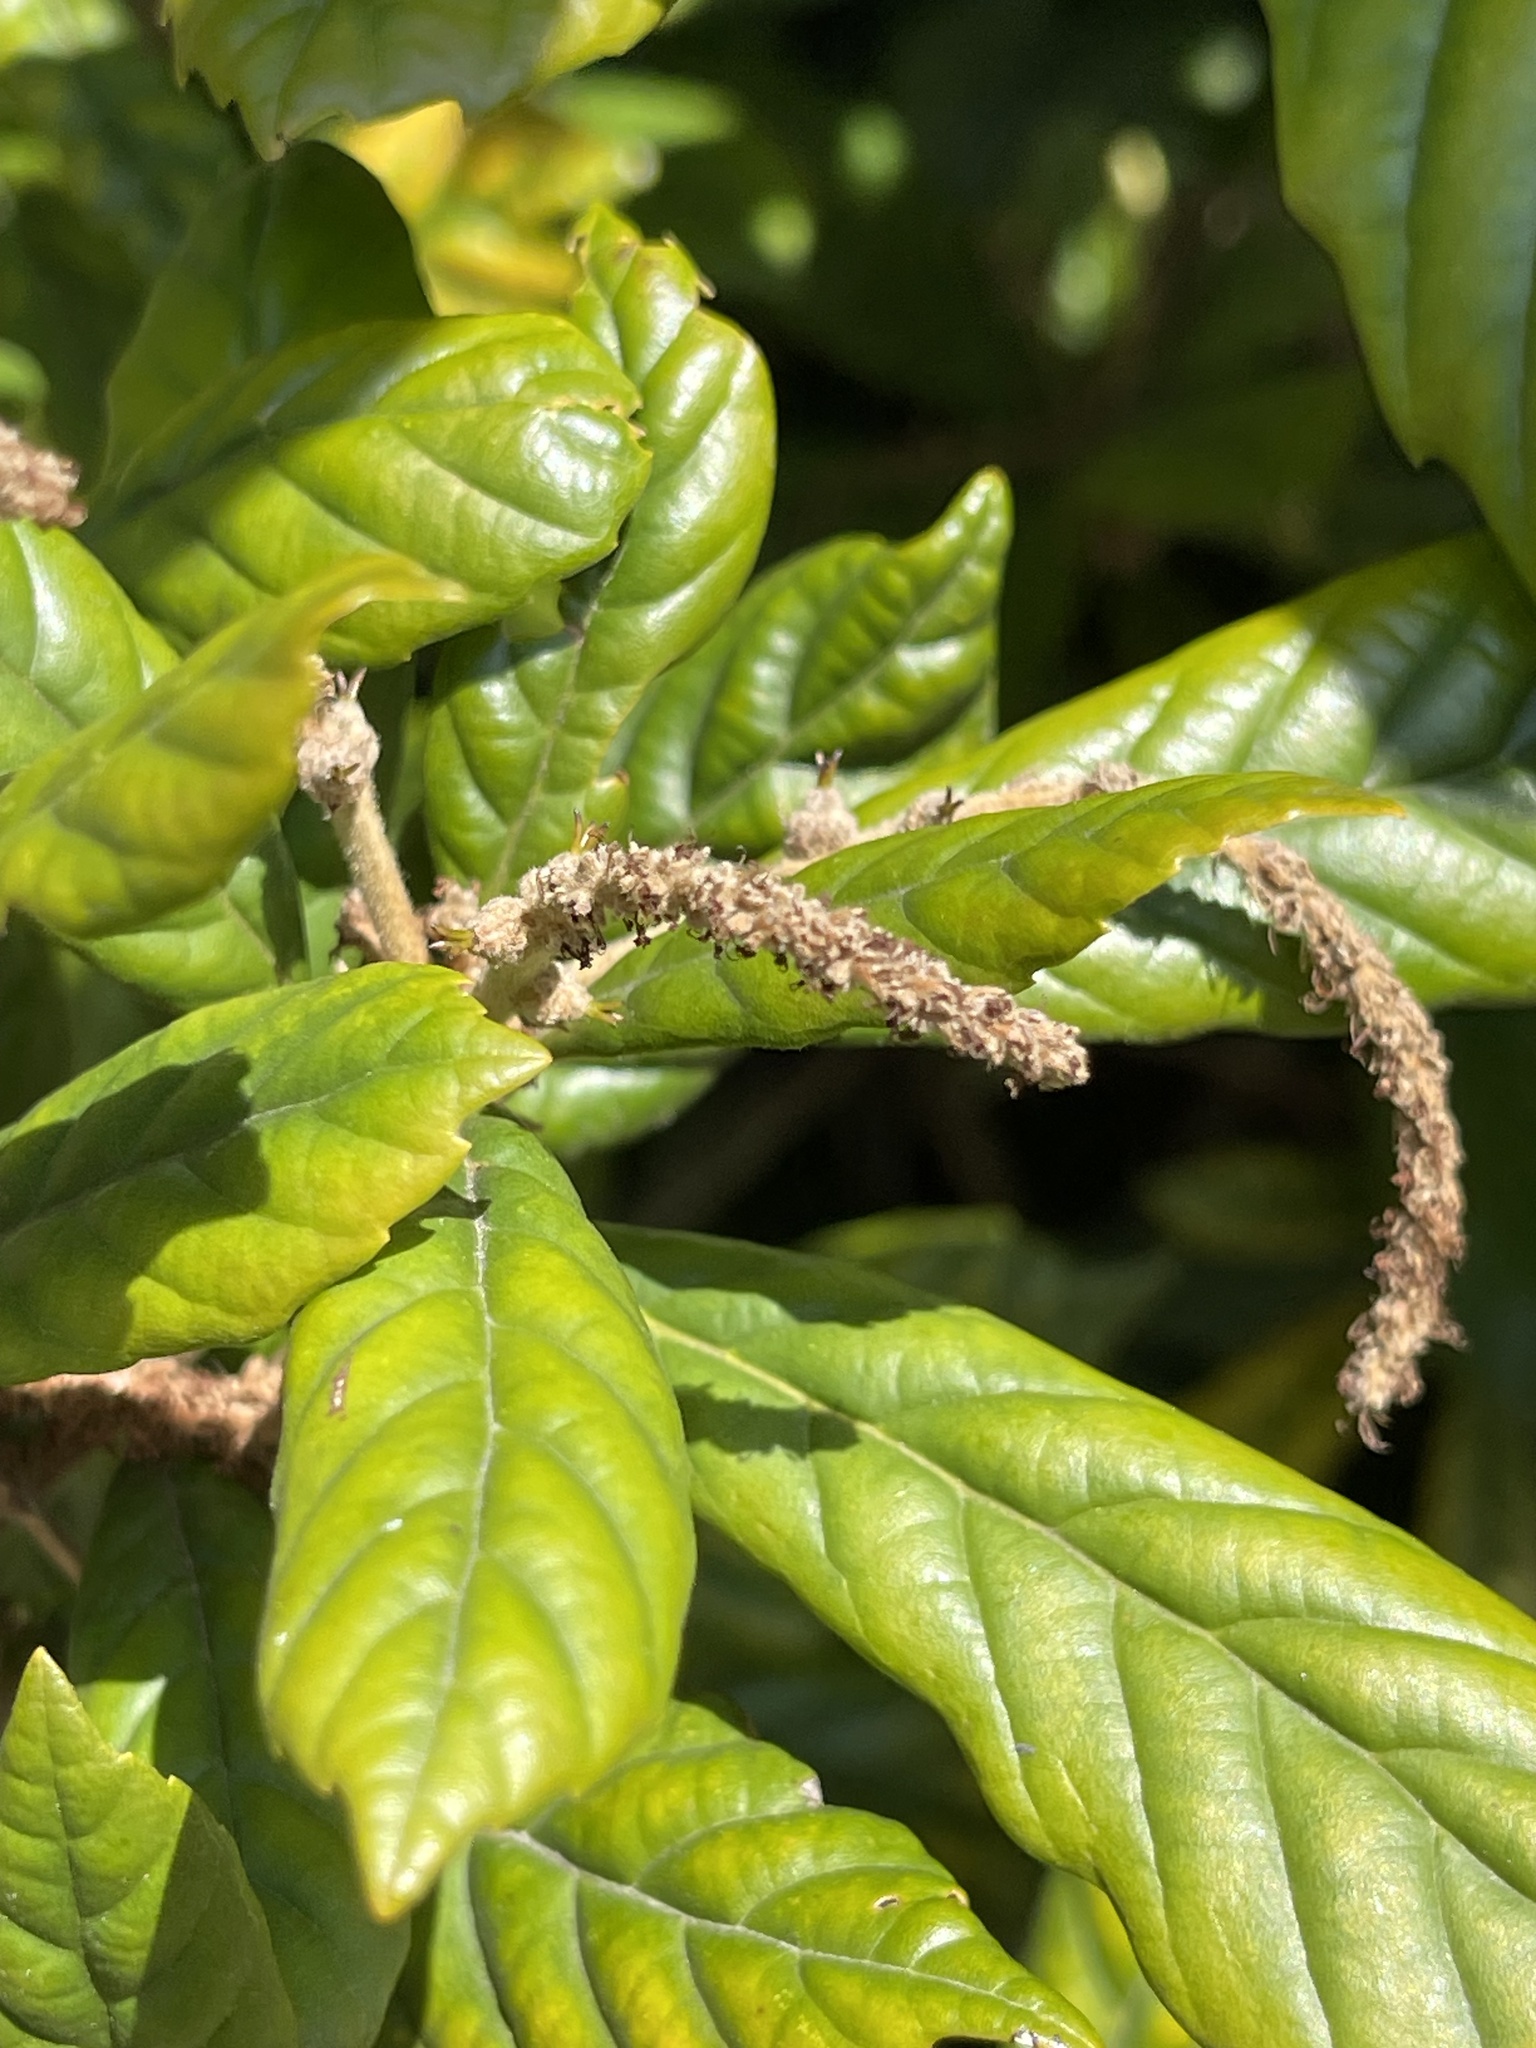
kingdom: Plantae
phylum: Tracheophyta
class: Magnoliopsida
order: Fagales
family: Fagaceae
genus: Lithocarpus
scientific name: Lithocarpus quercifolius
